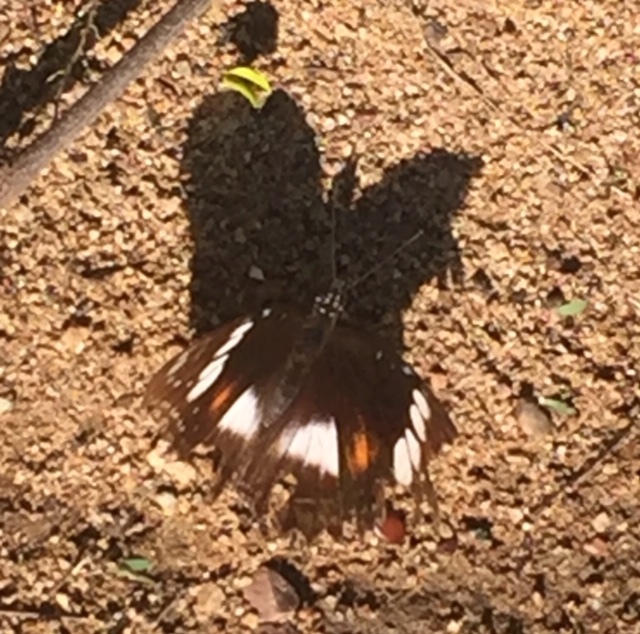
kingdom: Animalia
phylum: Arthropoda
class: Insecta
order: Lepidoptera
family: Nymphalidae
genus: Hypolimnas
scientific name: Hypolimnas bolina
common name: Great eggfly
